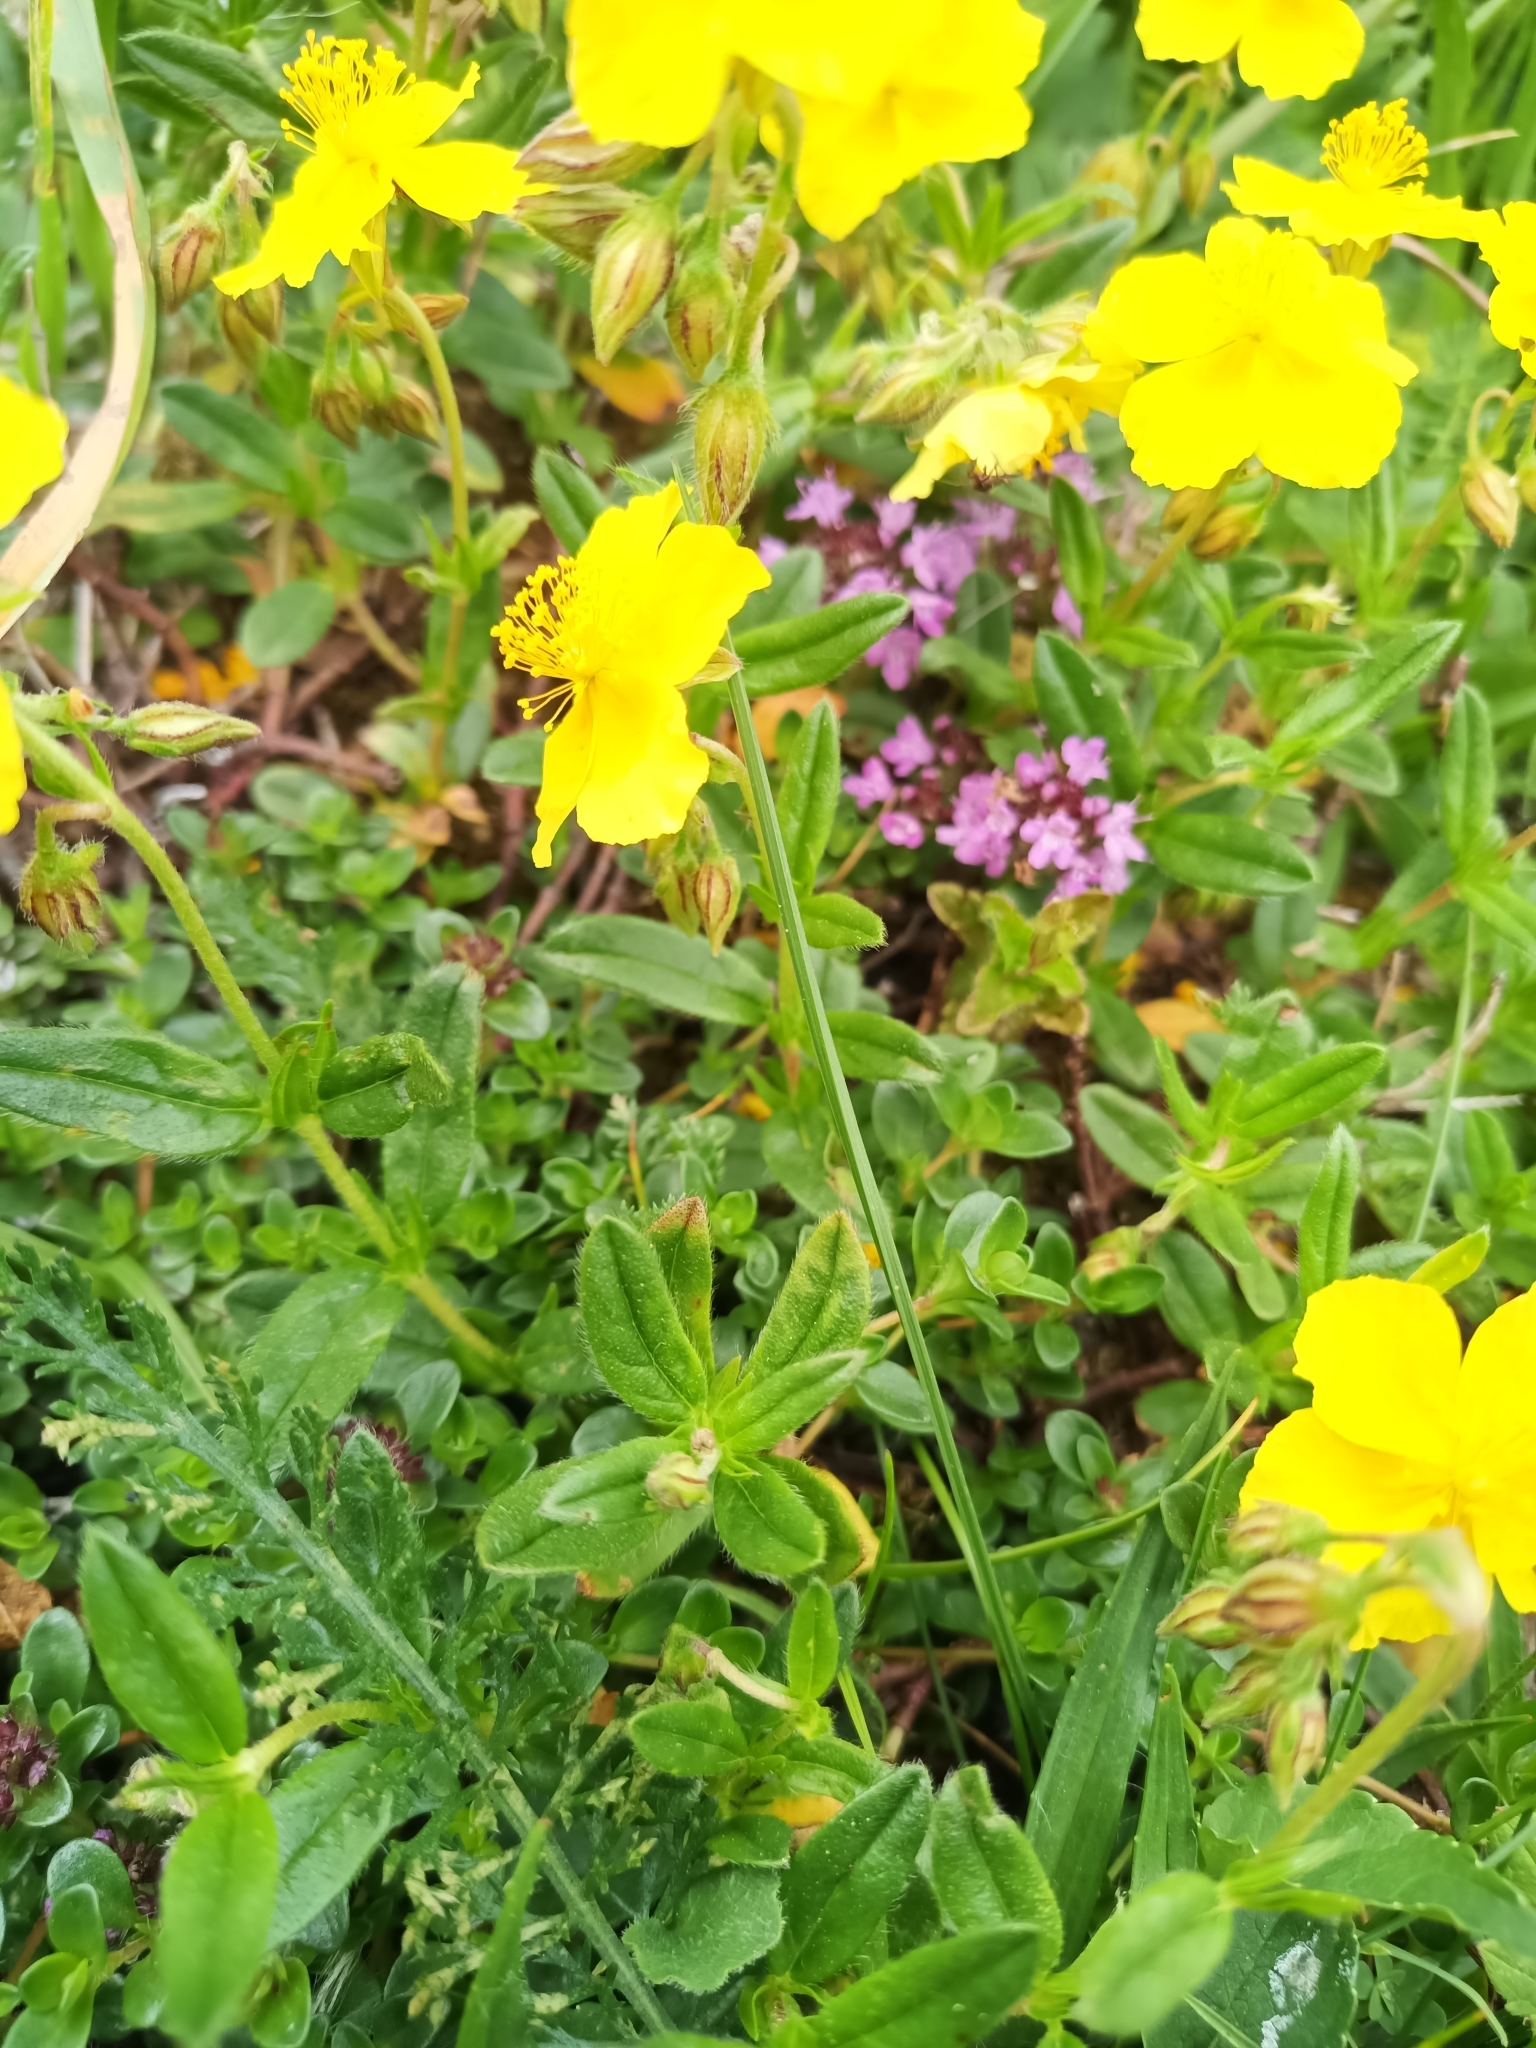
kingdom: Plantae
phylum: Tracheophyta
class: Magnoliopsida
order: Malvales
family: Cistaceae
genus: Helianthemum
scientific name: Helianthemum nummularium
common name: Common rock-rose
